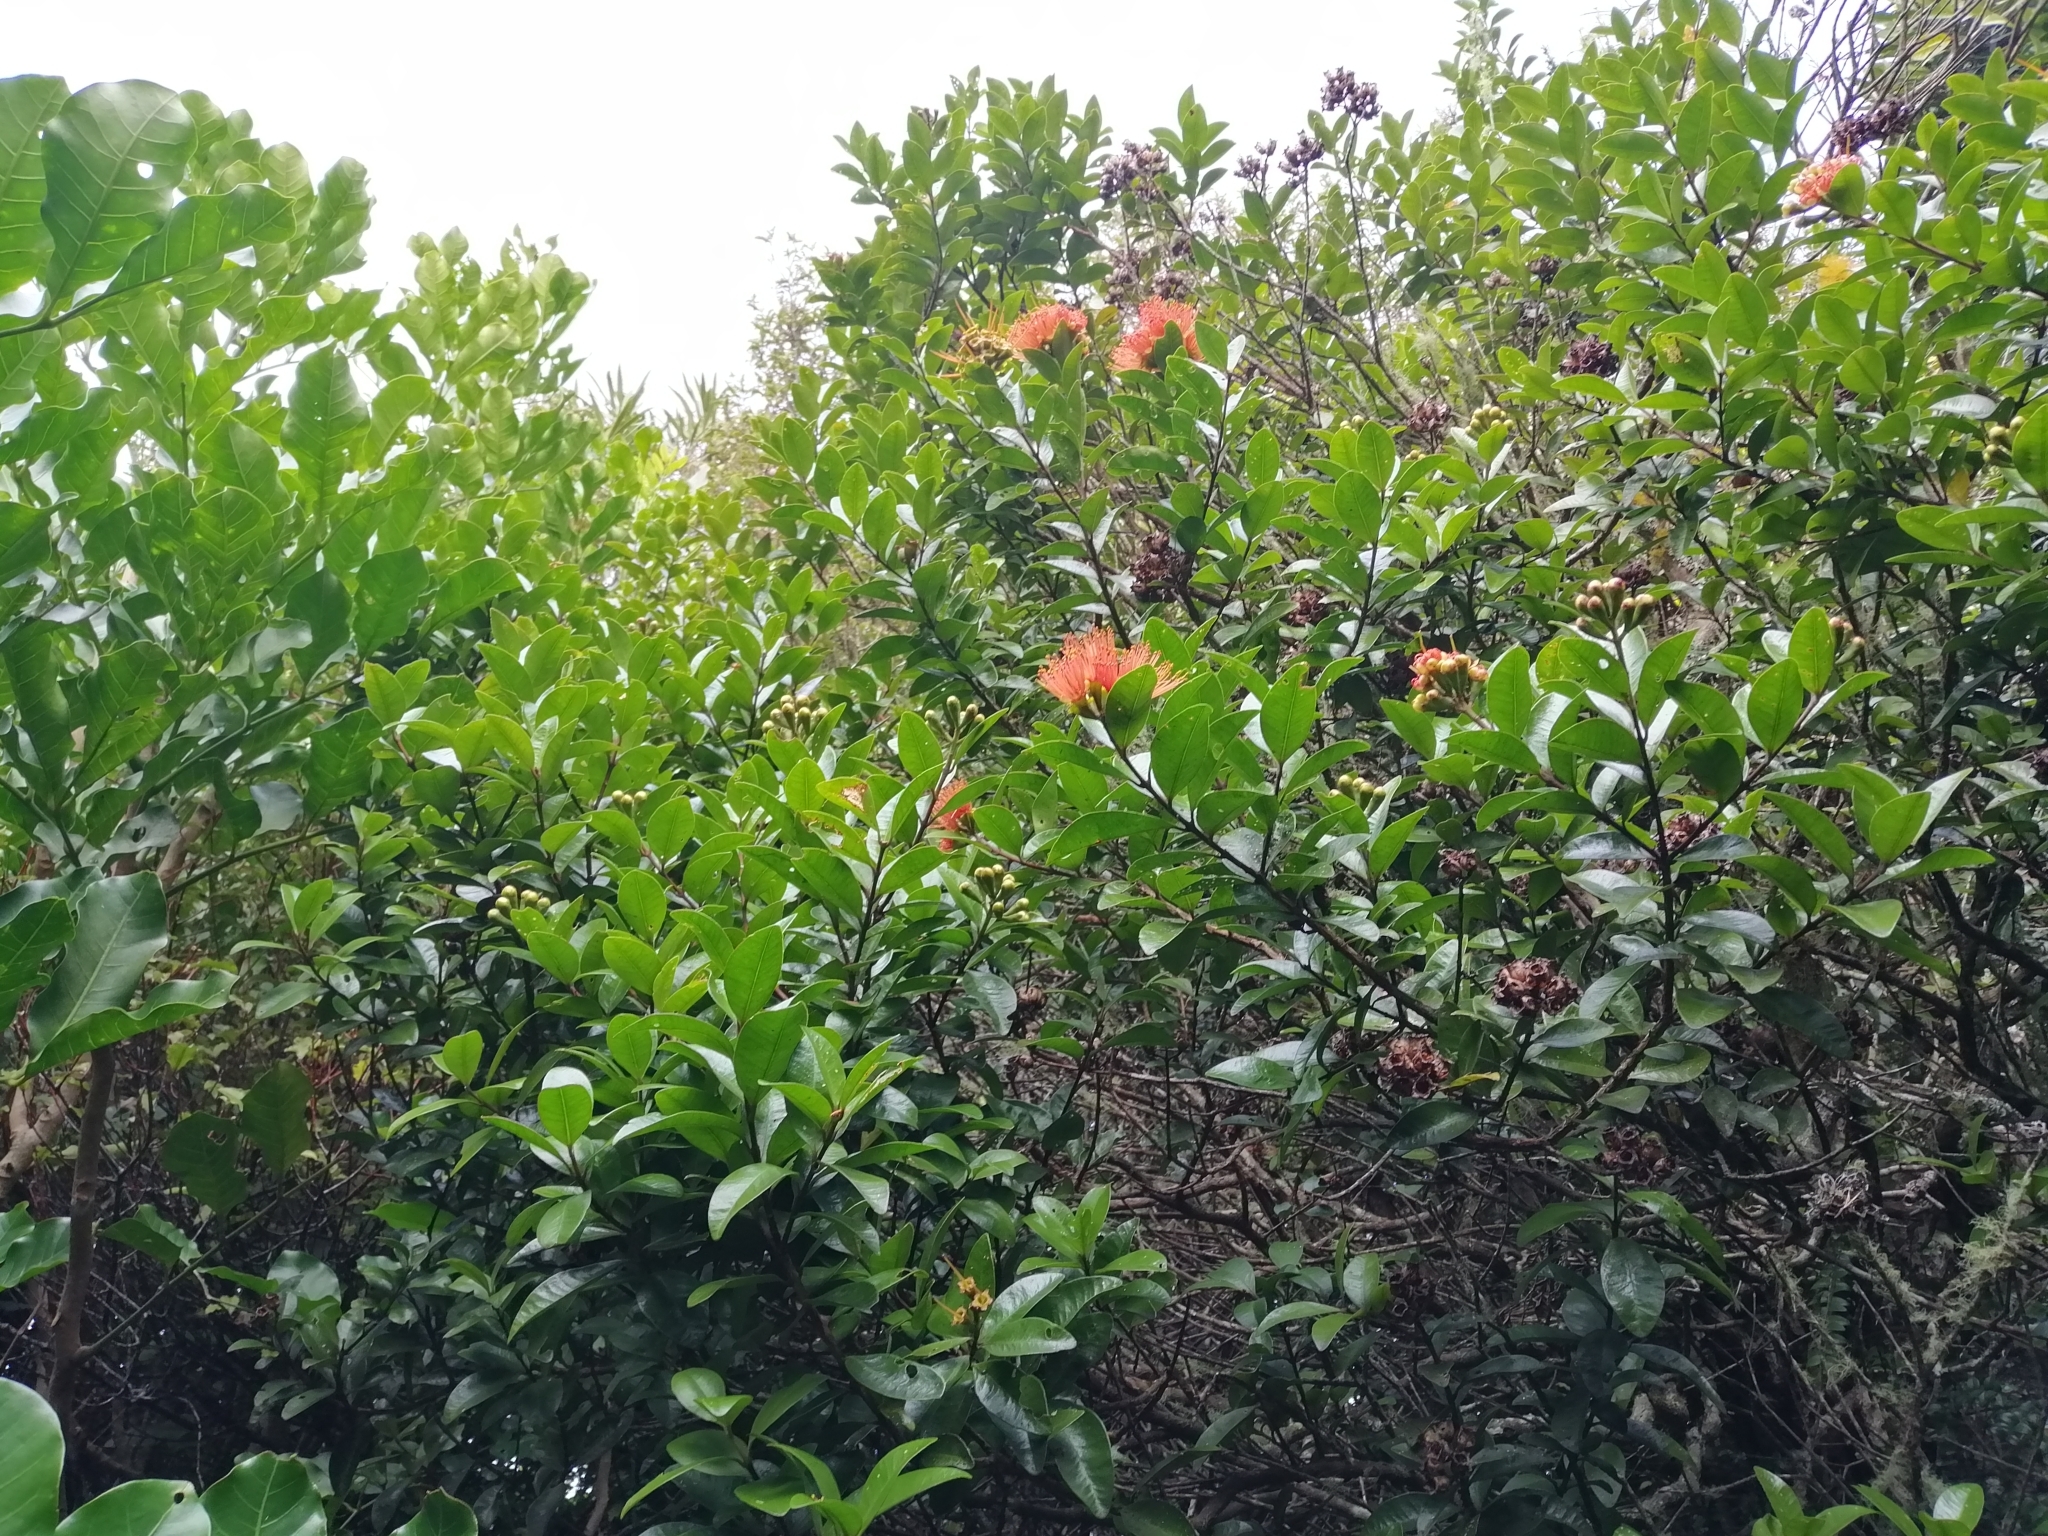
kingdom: Plantae
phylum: Tracheophyta
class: Magnoliopsida
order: Myrtales
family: Myrtaceae
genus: Metrosideros
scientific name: Metrosideros fulgens
